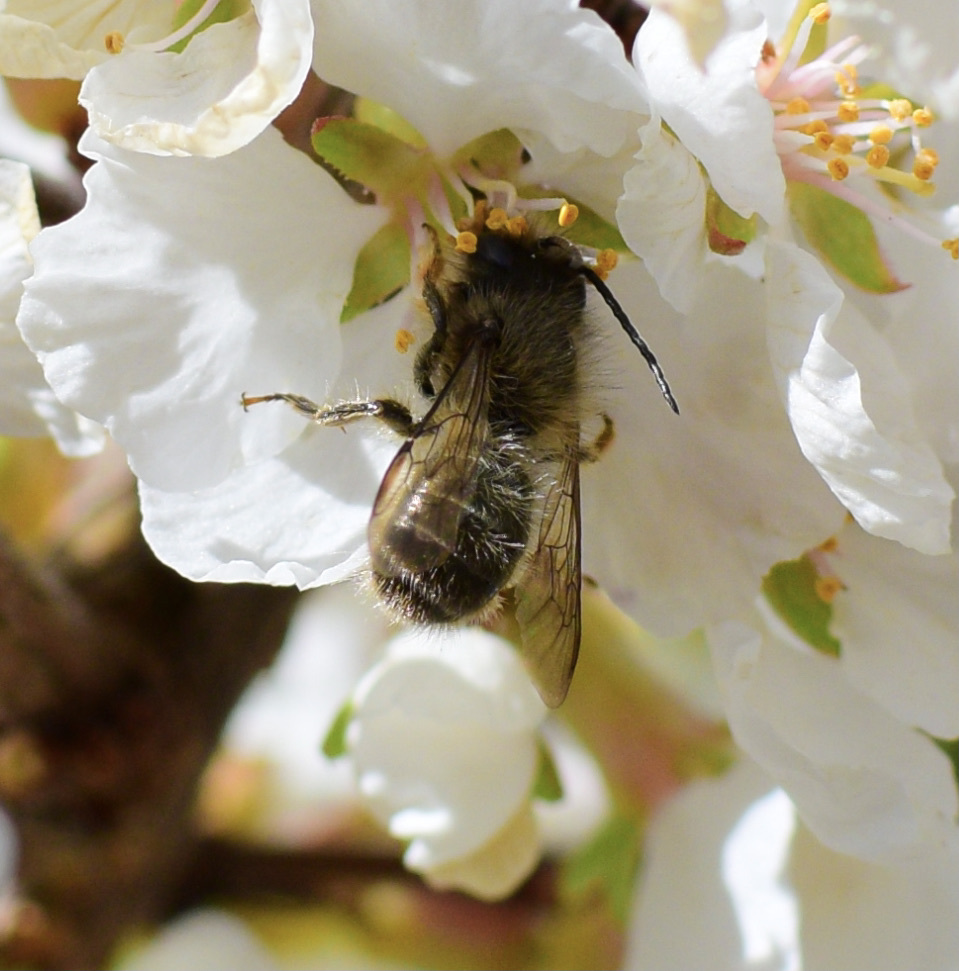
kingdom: Animalia
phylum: Arthropoda
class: Insecta
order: Hymenoptera
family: Megachilidae
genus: Osmia
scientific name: Osmia cornifrons
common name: Horn-faced bee
